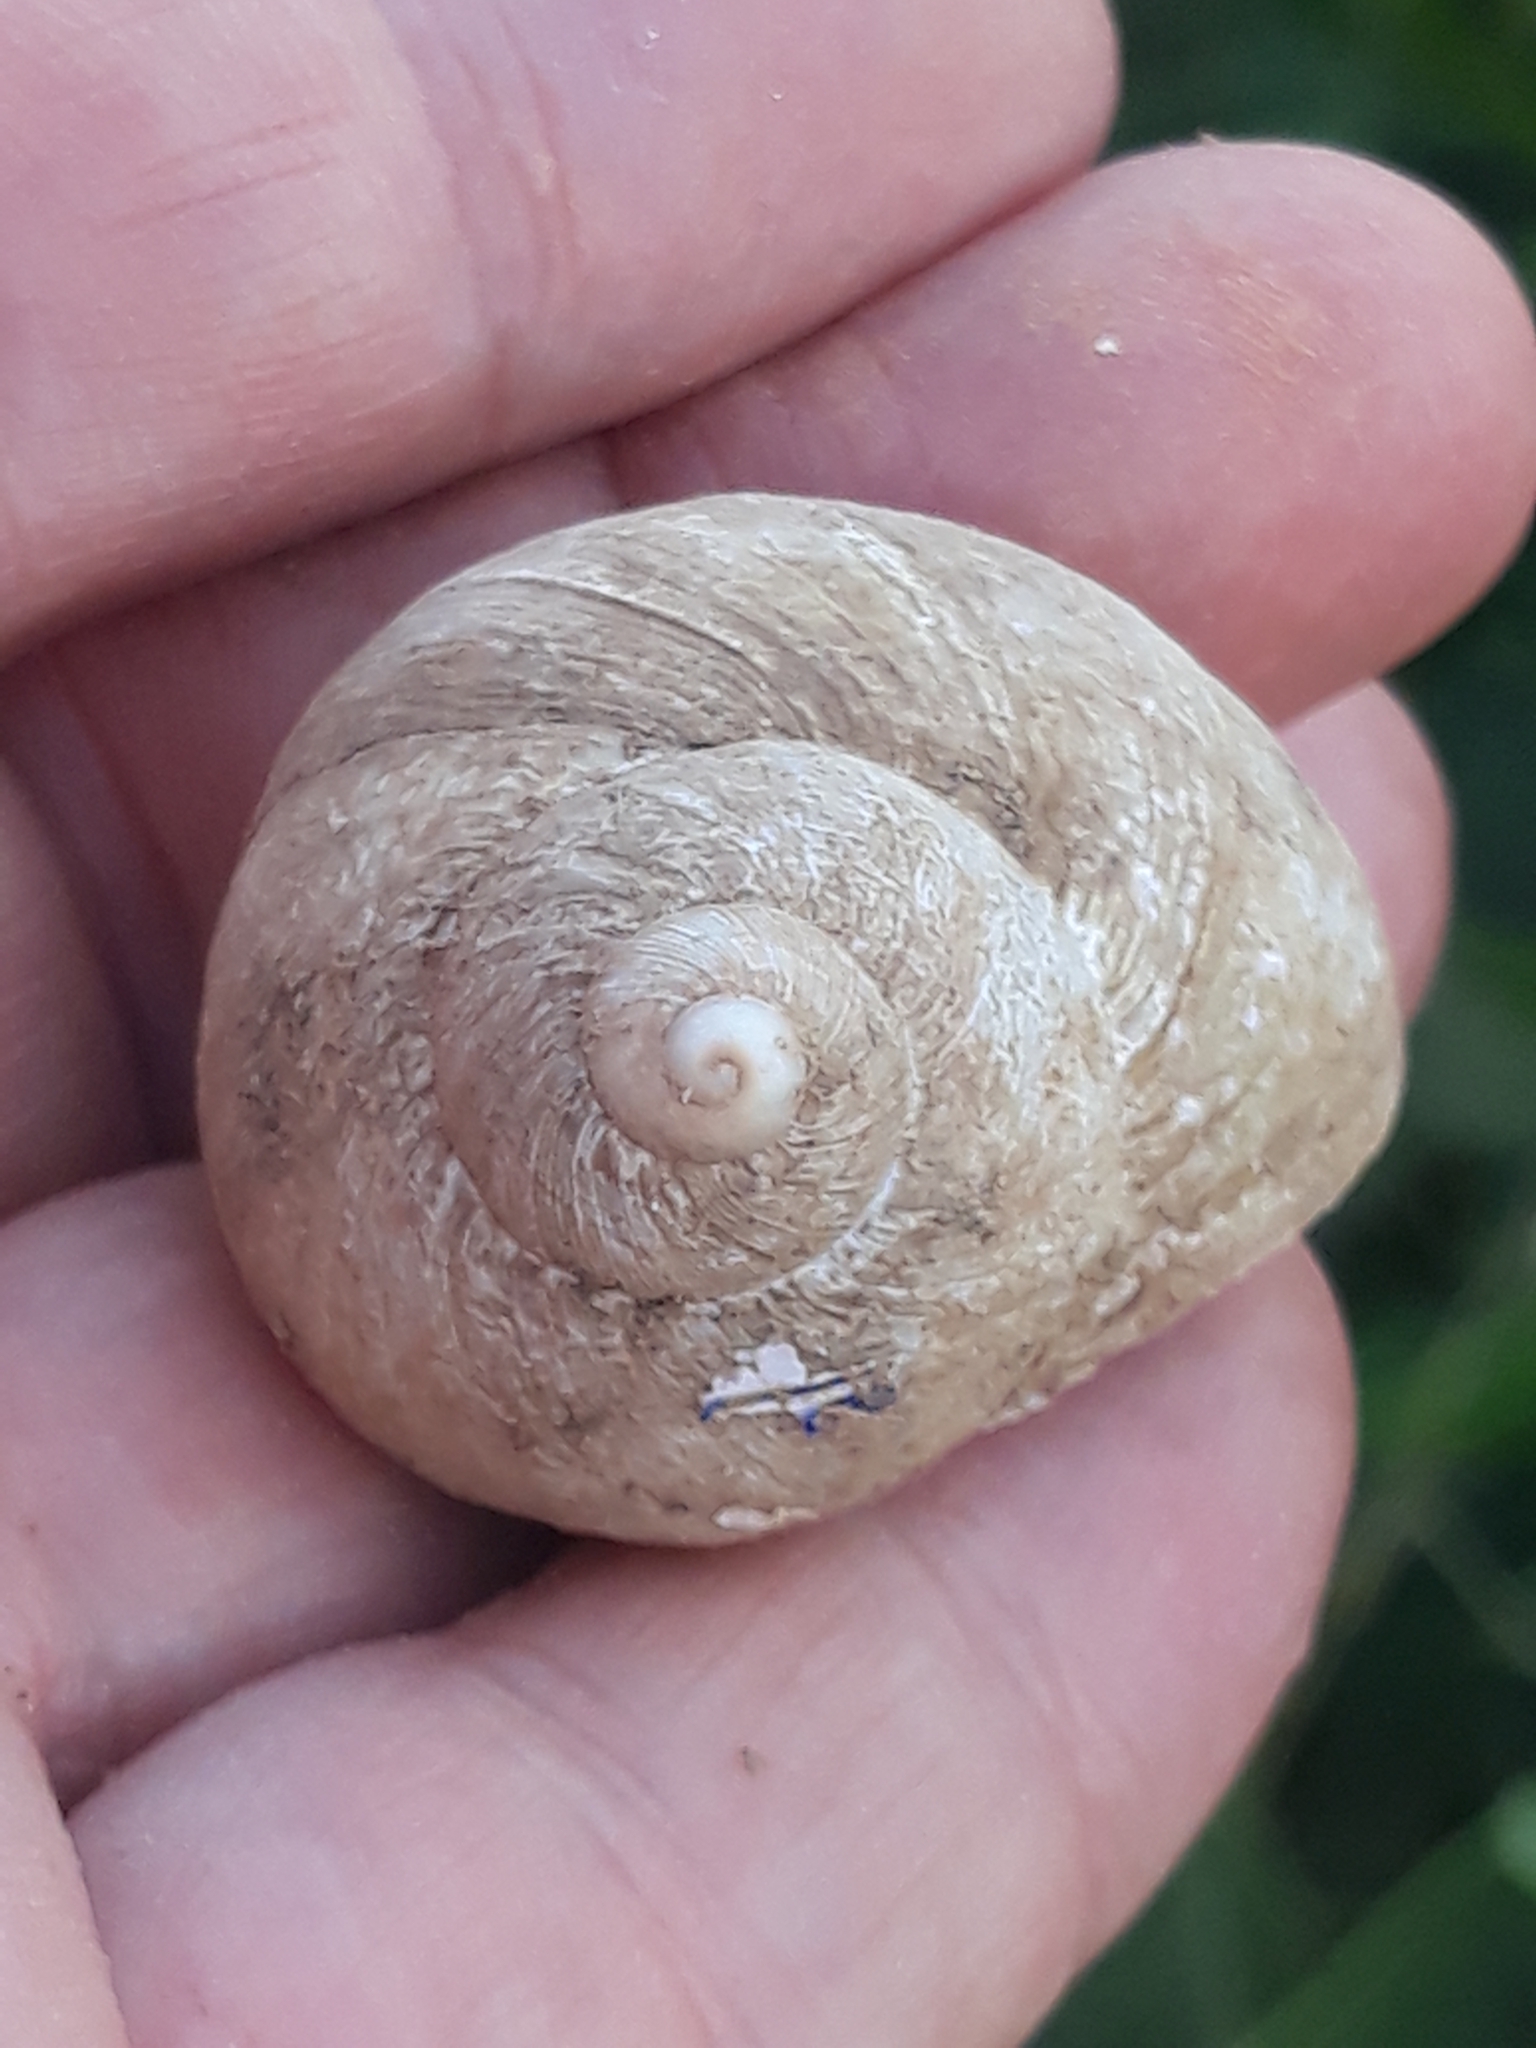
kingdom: Animalia
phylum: Mollusca
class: Gastropoda
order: Stylommatophora
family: Helicidae
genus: Cornu
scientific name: Cornu aspersum
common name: Brown garden snail
